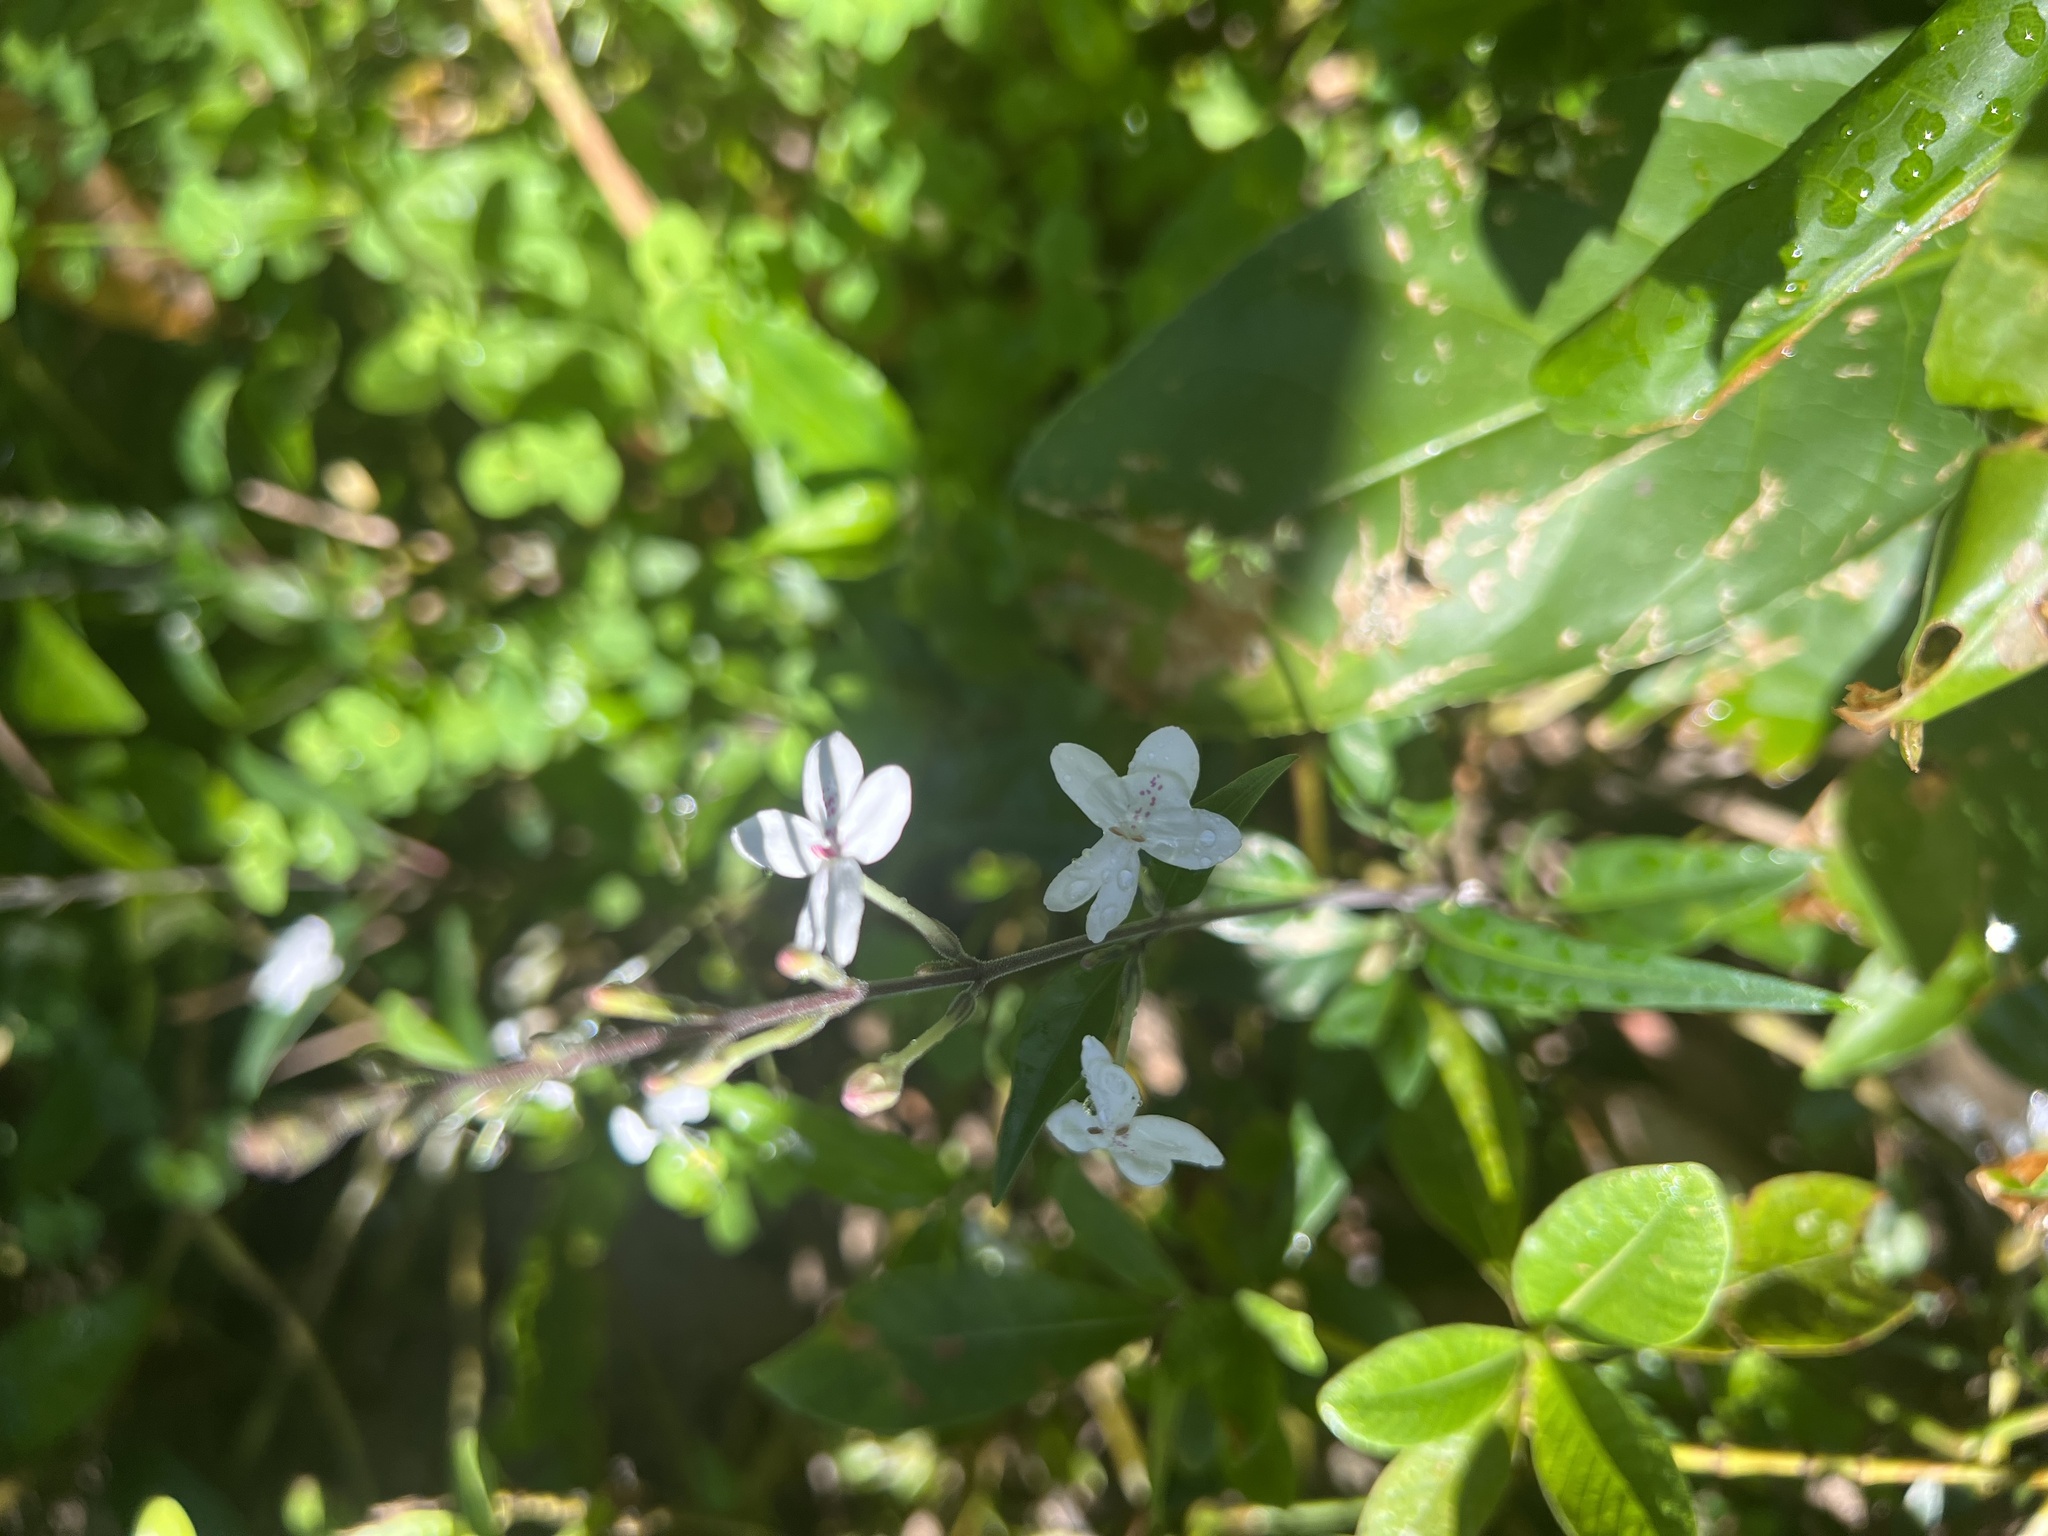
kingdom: Plantae
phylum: Tracheophyta
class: Magnoliopsida
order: Lamiales
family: Acanthaceae
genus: Pseuderanthemum
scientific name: Pseuderanthemum variabile
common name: Night and afternoon
